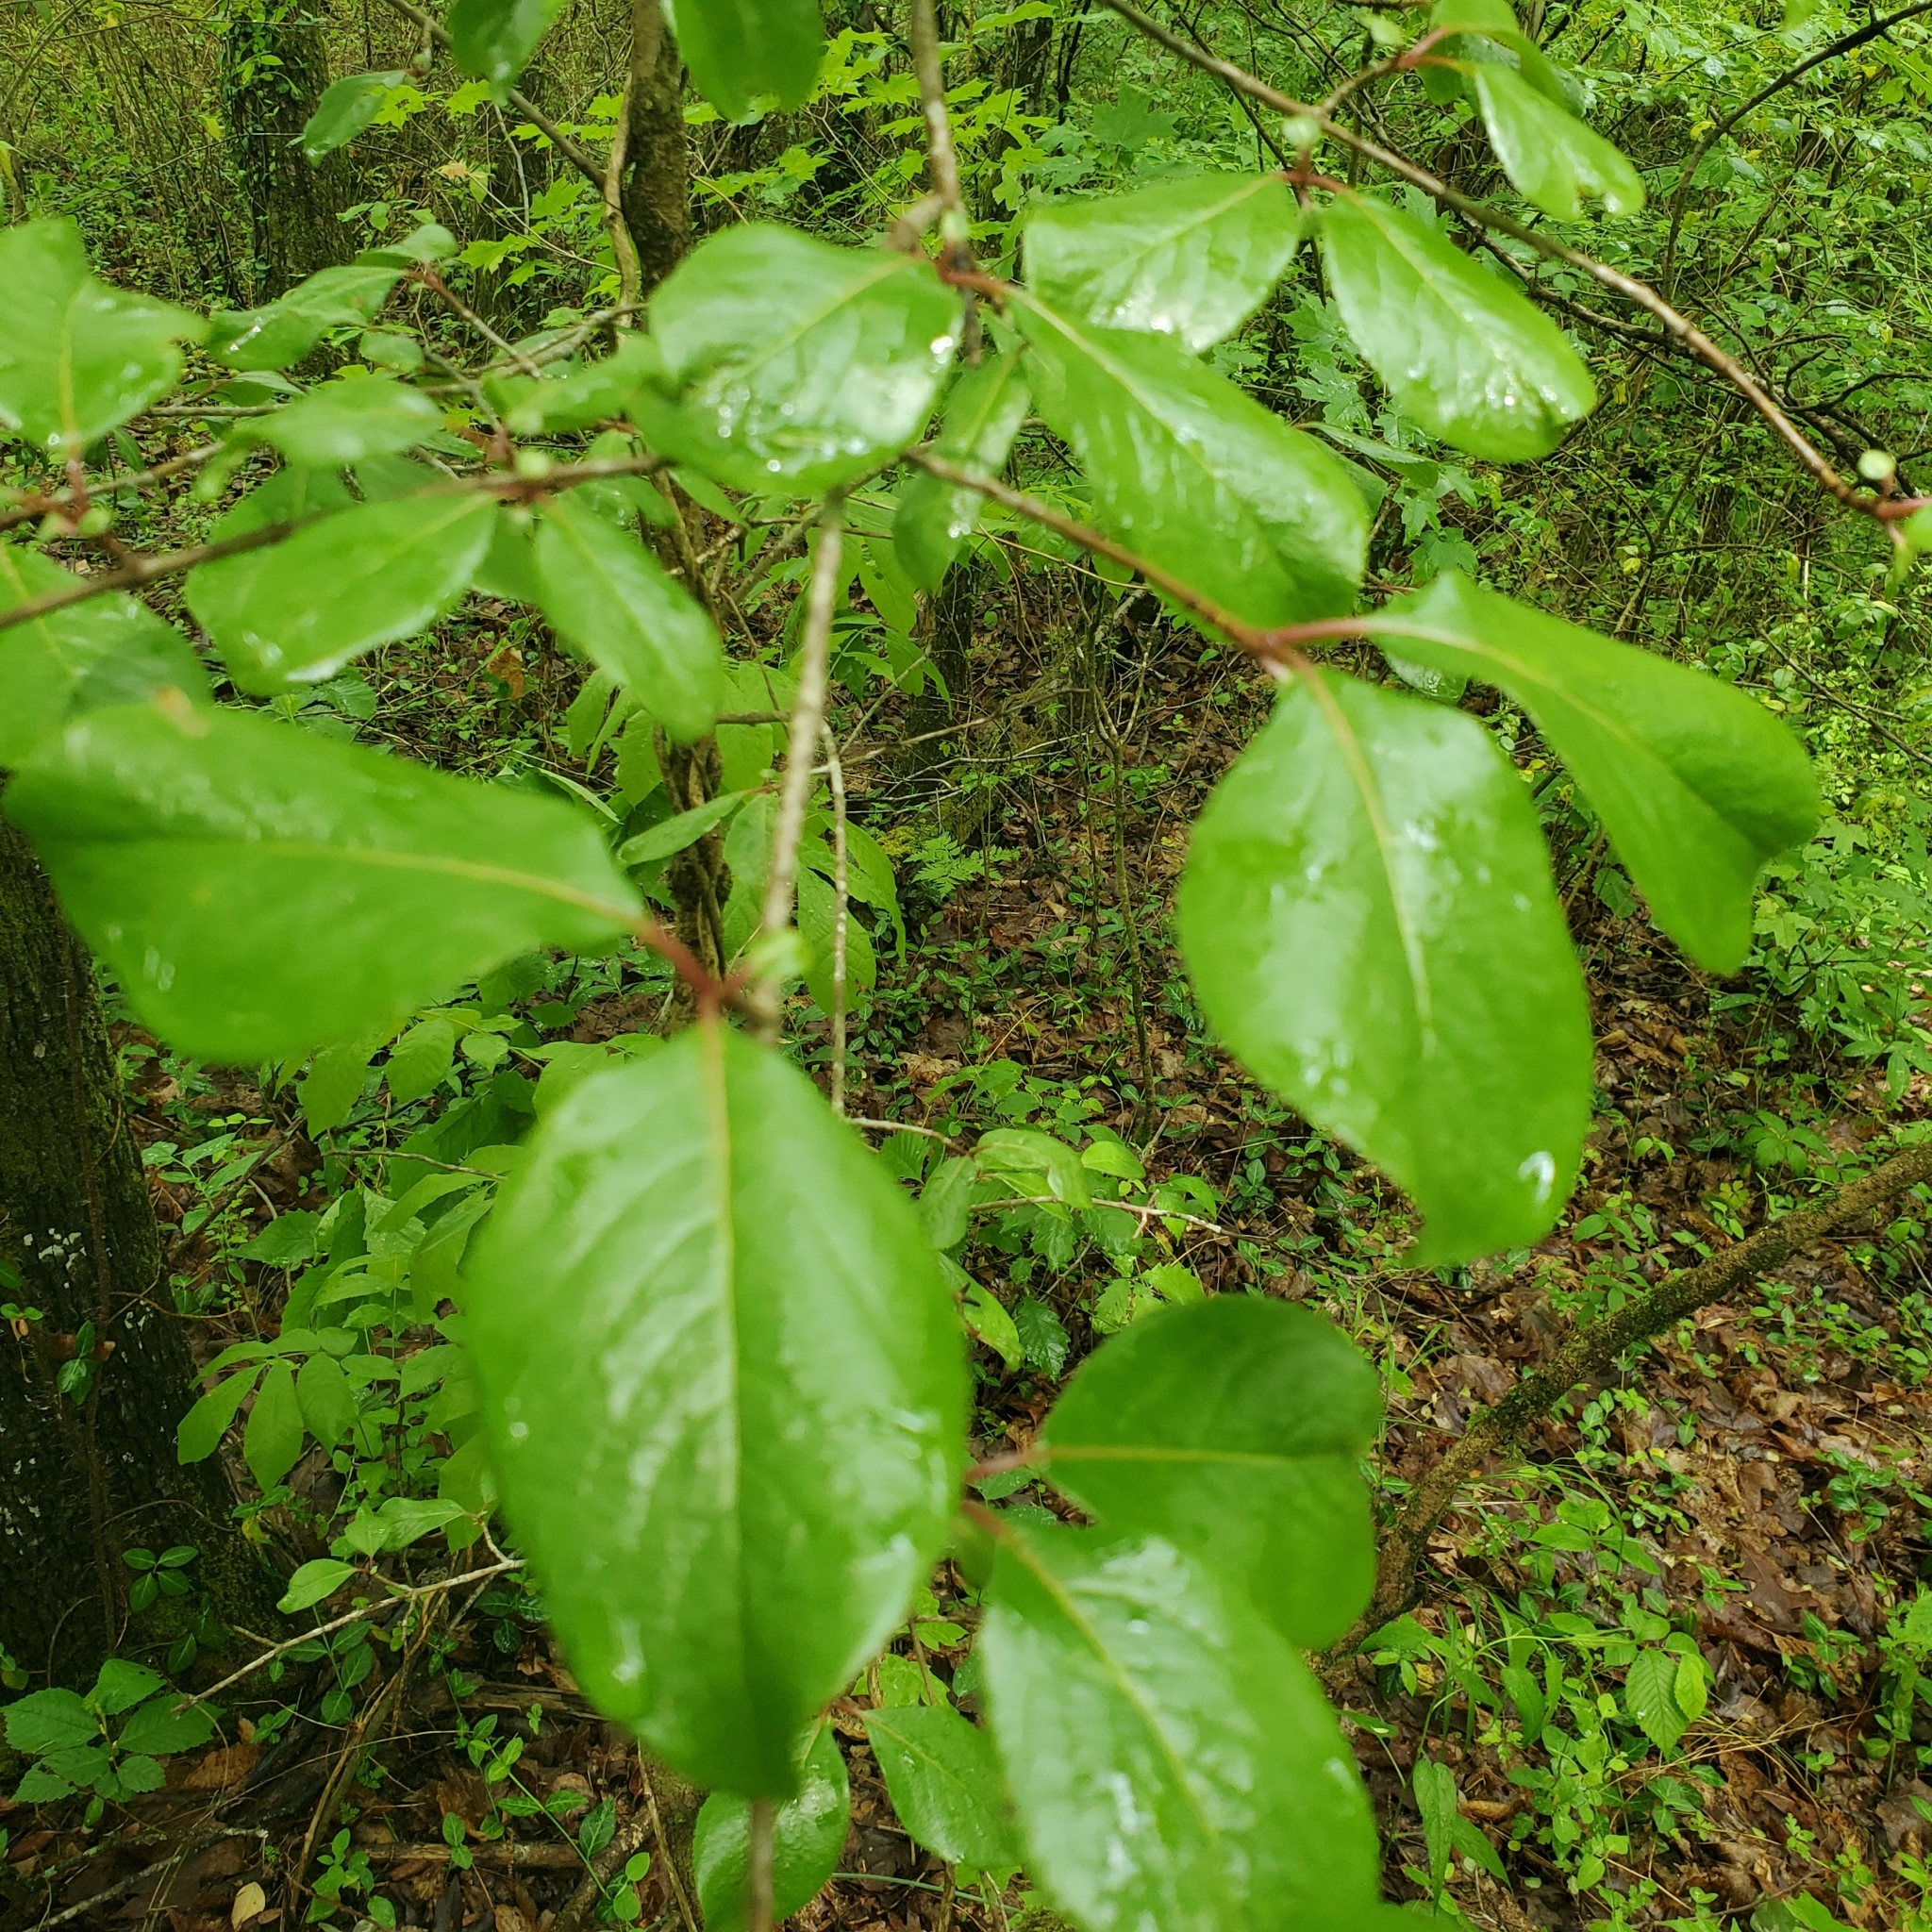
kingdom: Plantae
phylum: Tracheophyta
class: Magnoliopsida
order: Dipsacales
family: Viburnaceae
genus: Viburnum
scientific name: Viburnum rufidulum
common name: Blue haw
